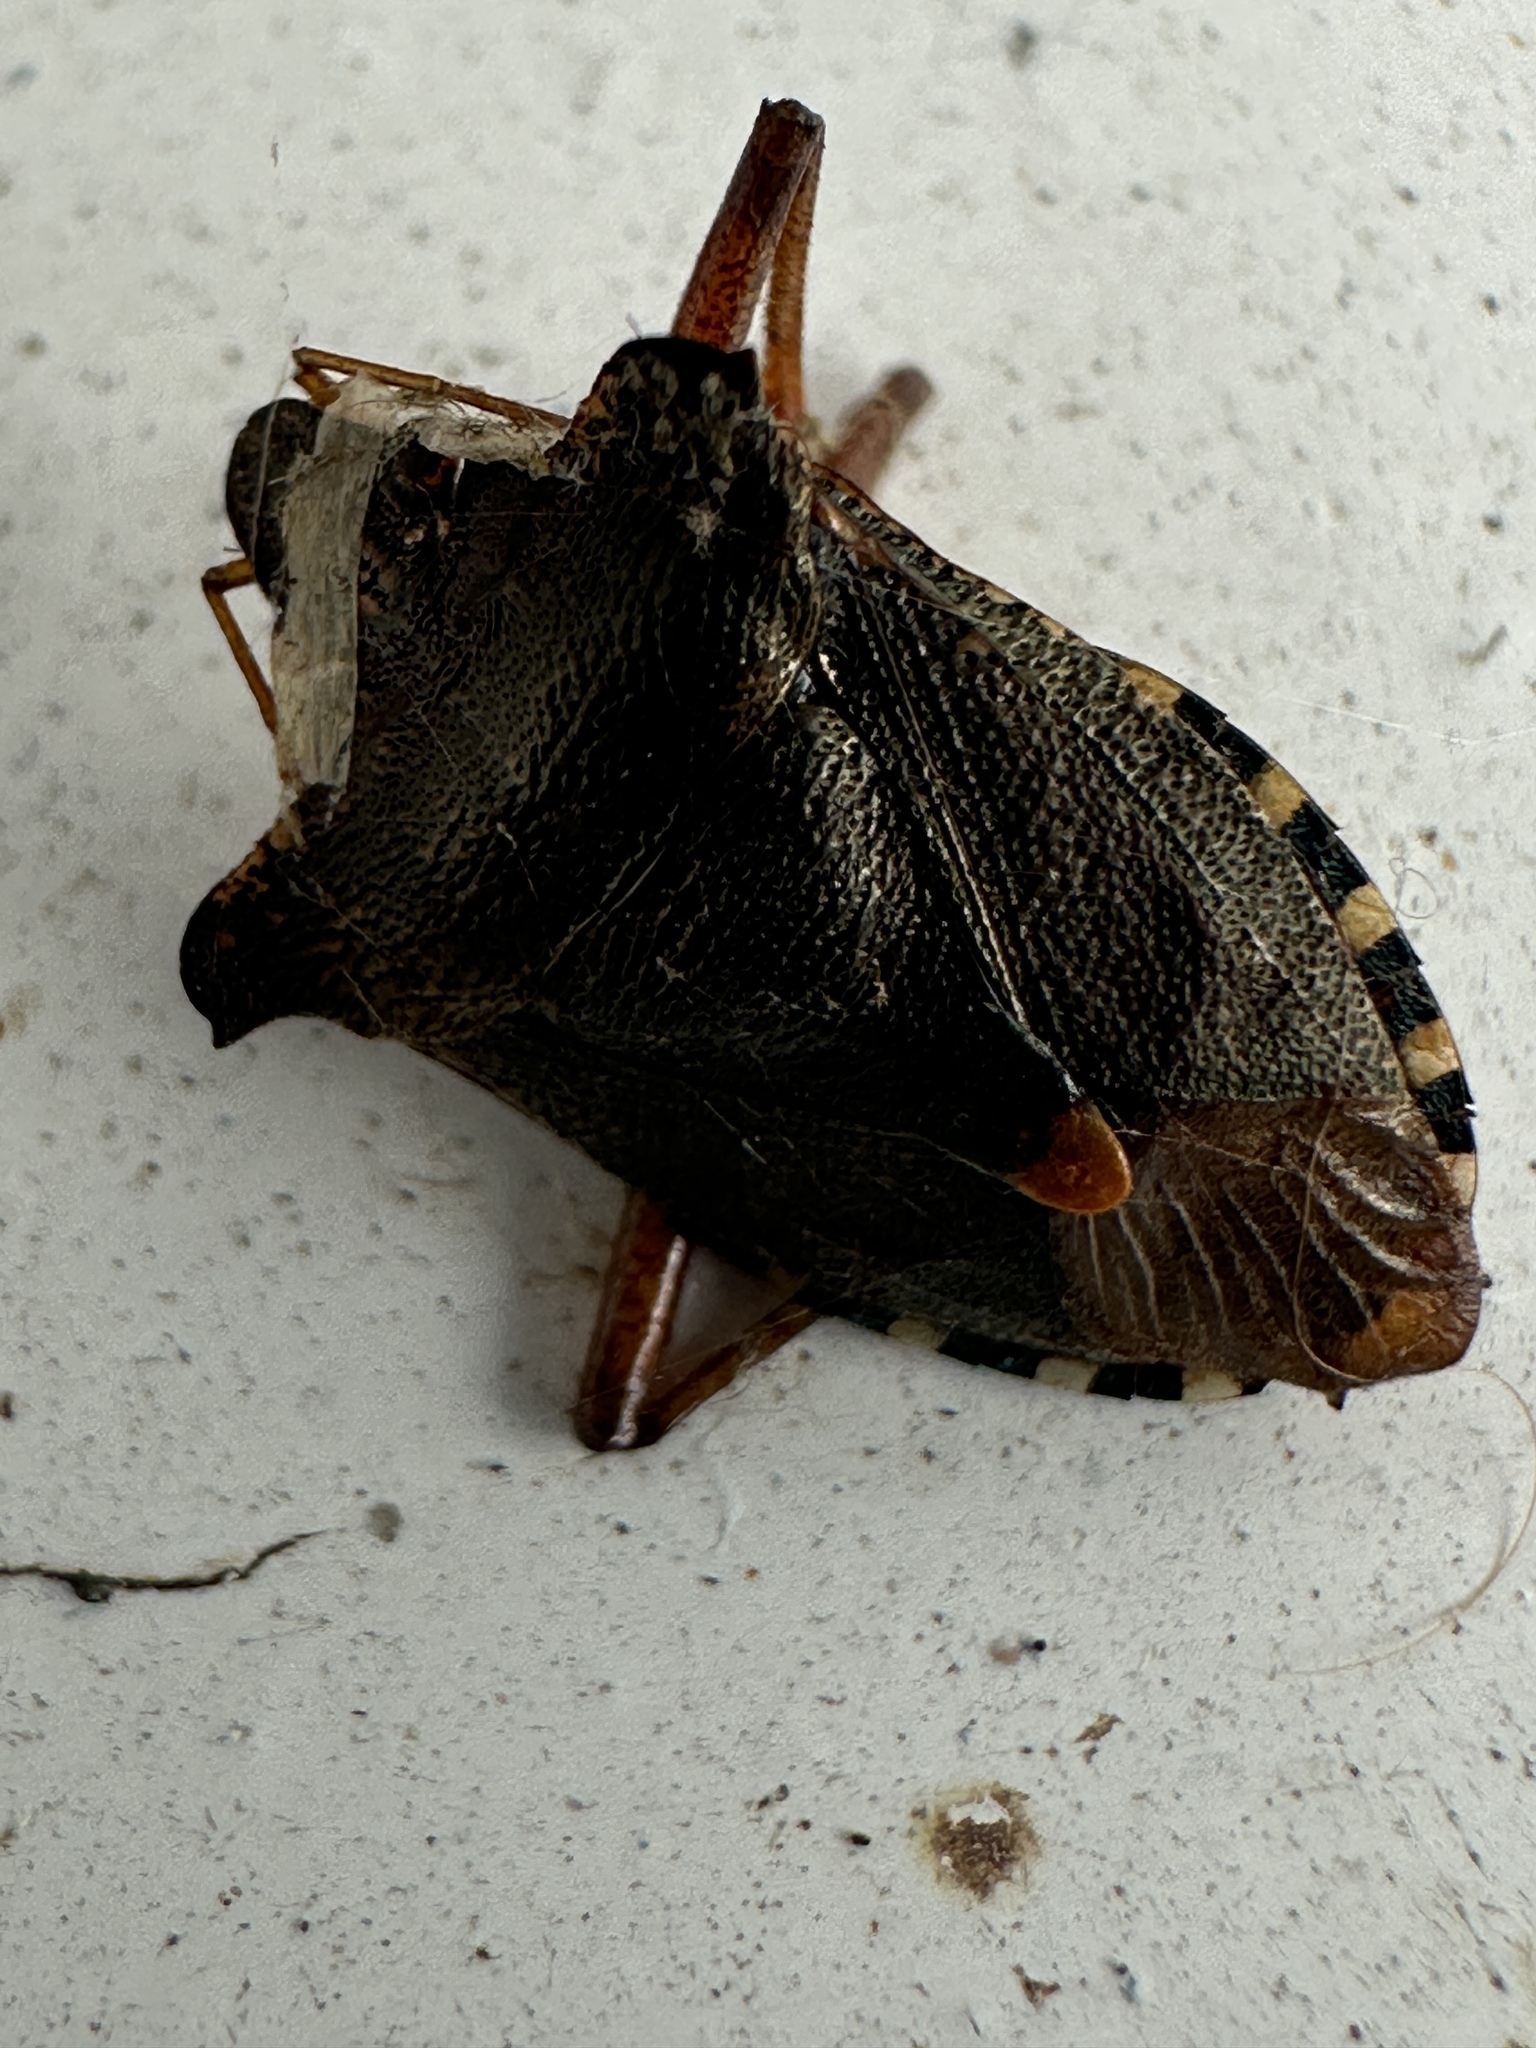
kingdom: Animalia
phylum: Arthropoda
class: Insecta
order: Hemiptera
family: Pentatomidae
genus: Pentatoma
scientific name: Pentatoma rufipes
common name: Forest bug
